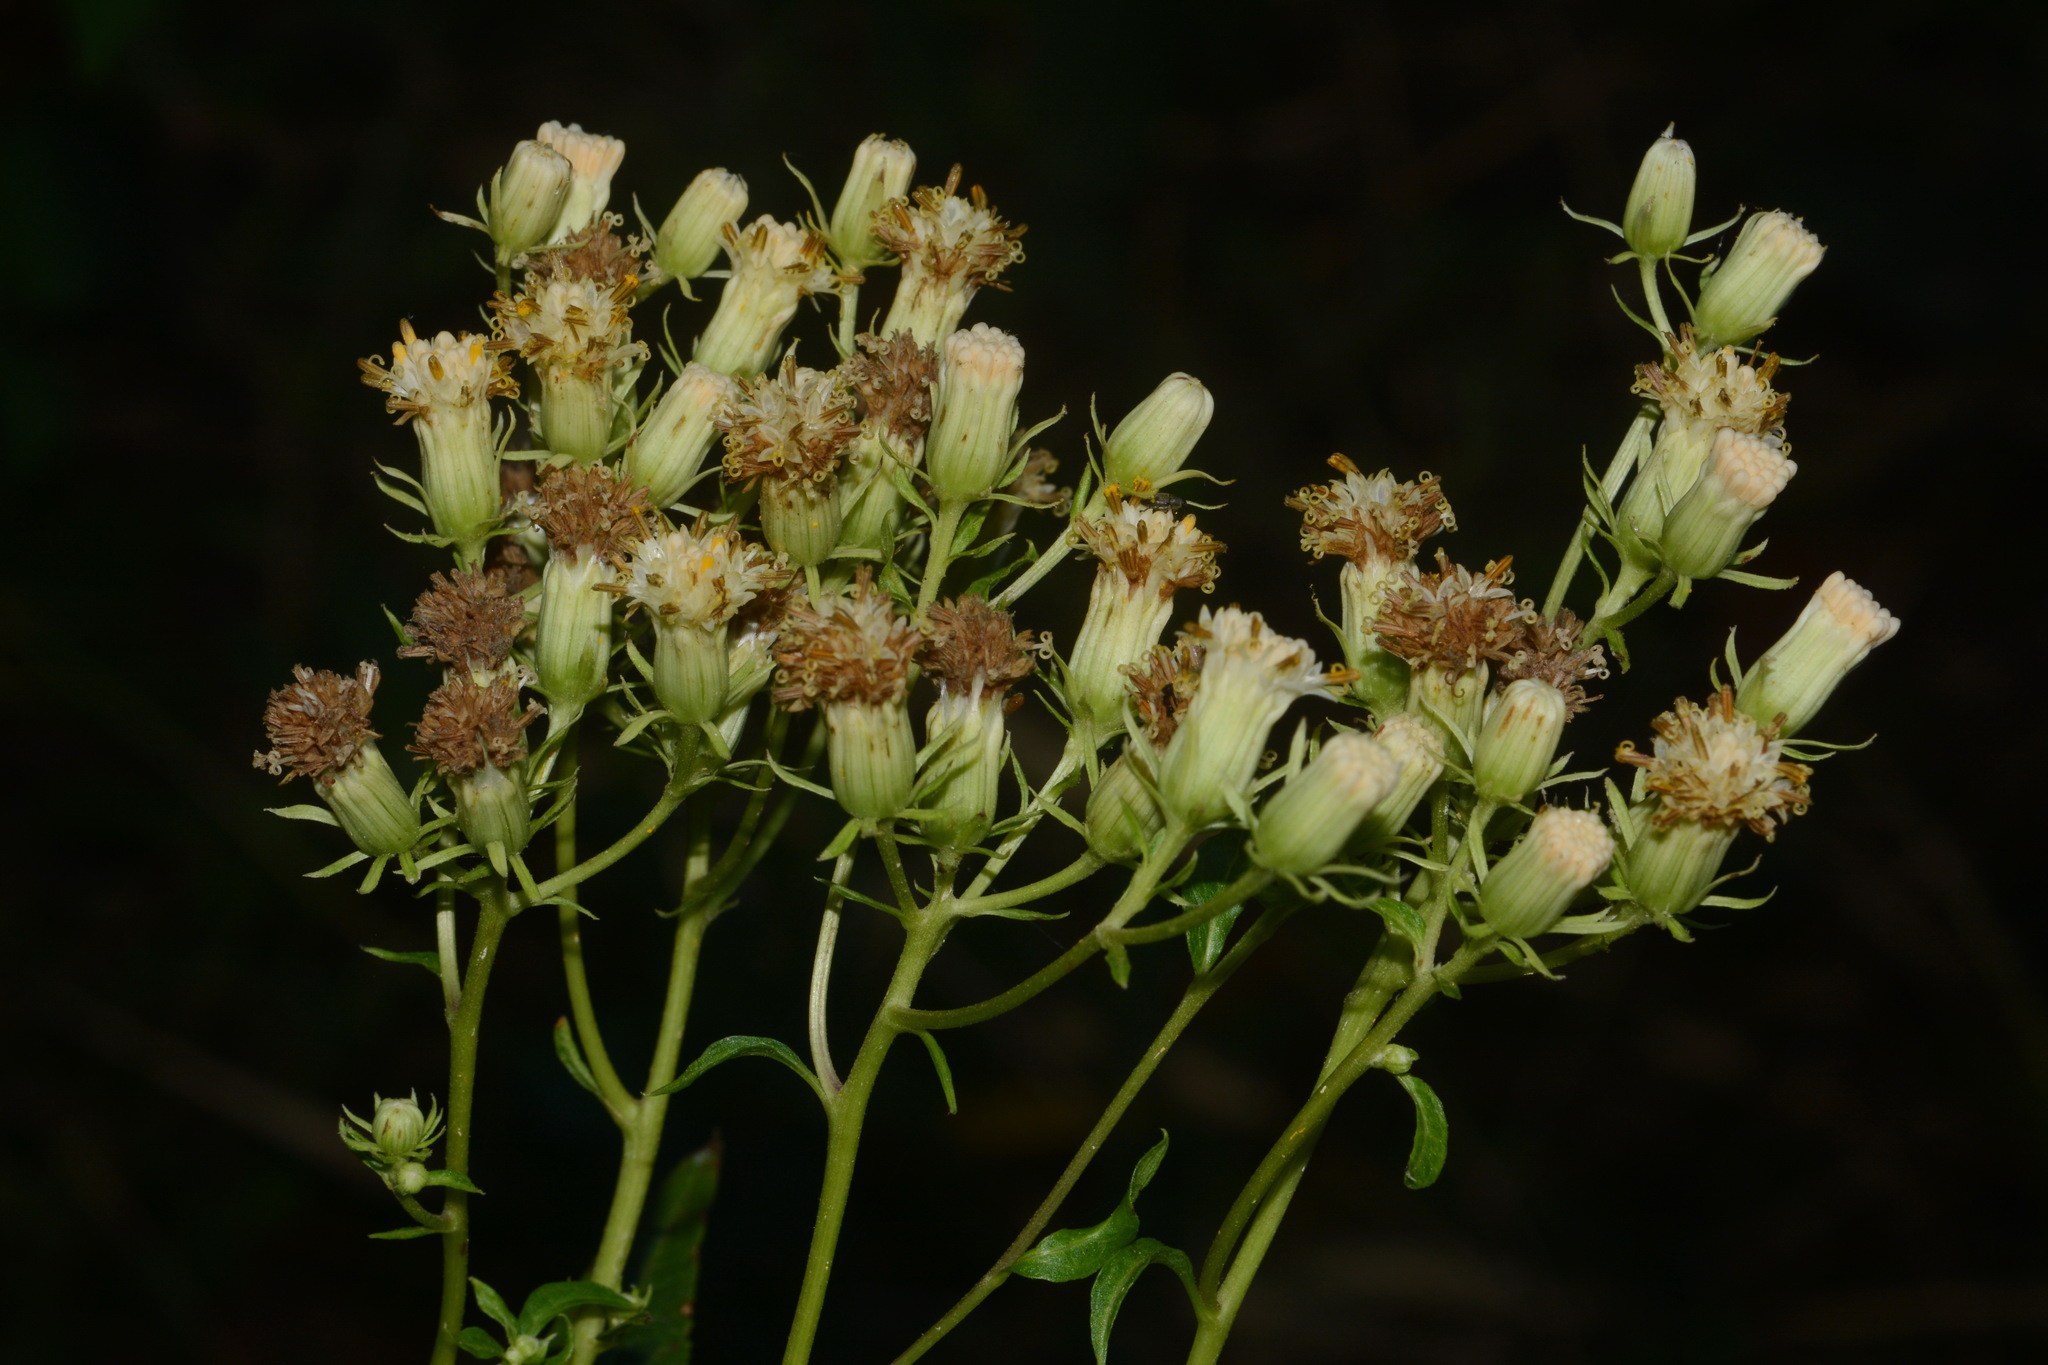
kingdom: Plantae
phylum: Tracheophyta
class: Magnoliopsida
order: Asterales
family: Asteraceae
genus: Hasteola
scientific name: Hasteola suaveolens
